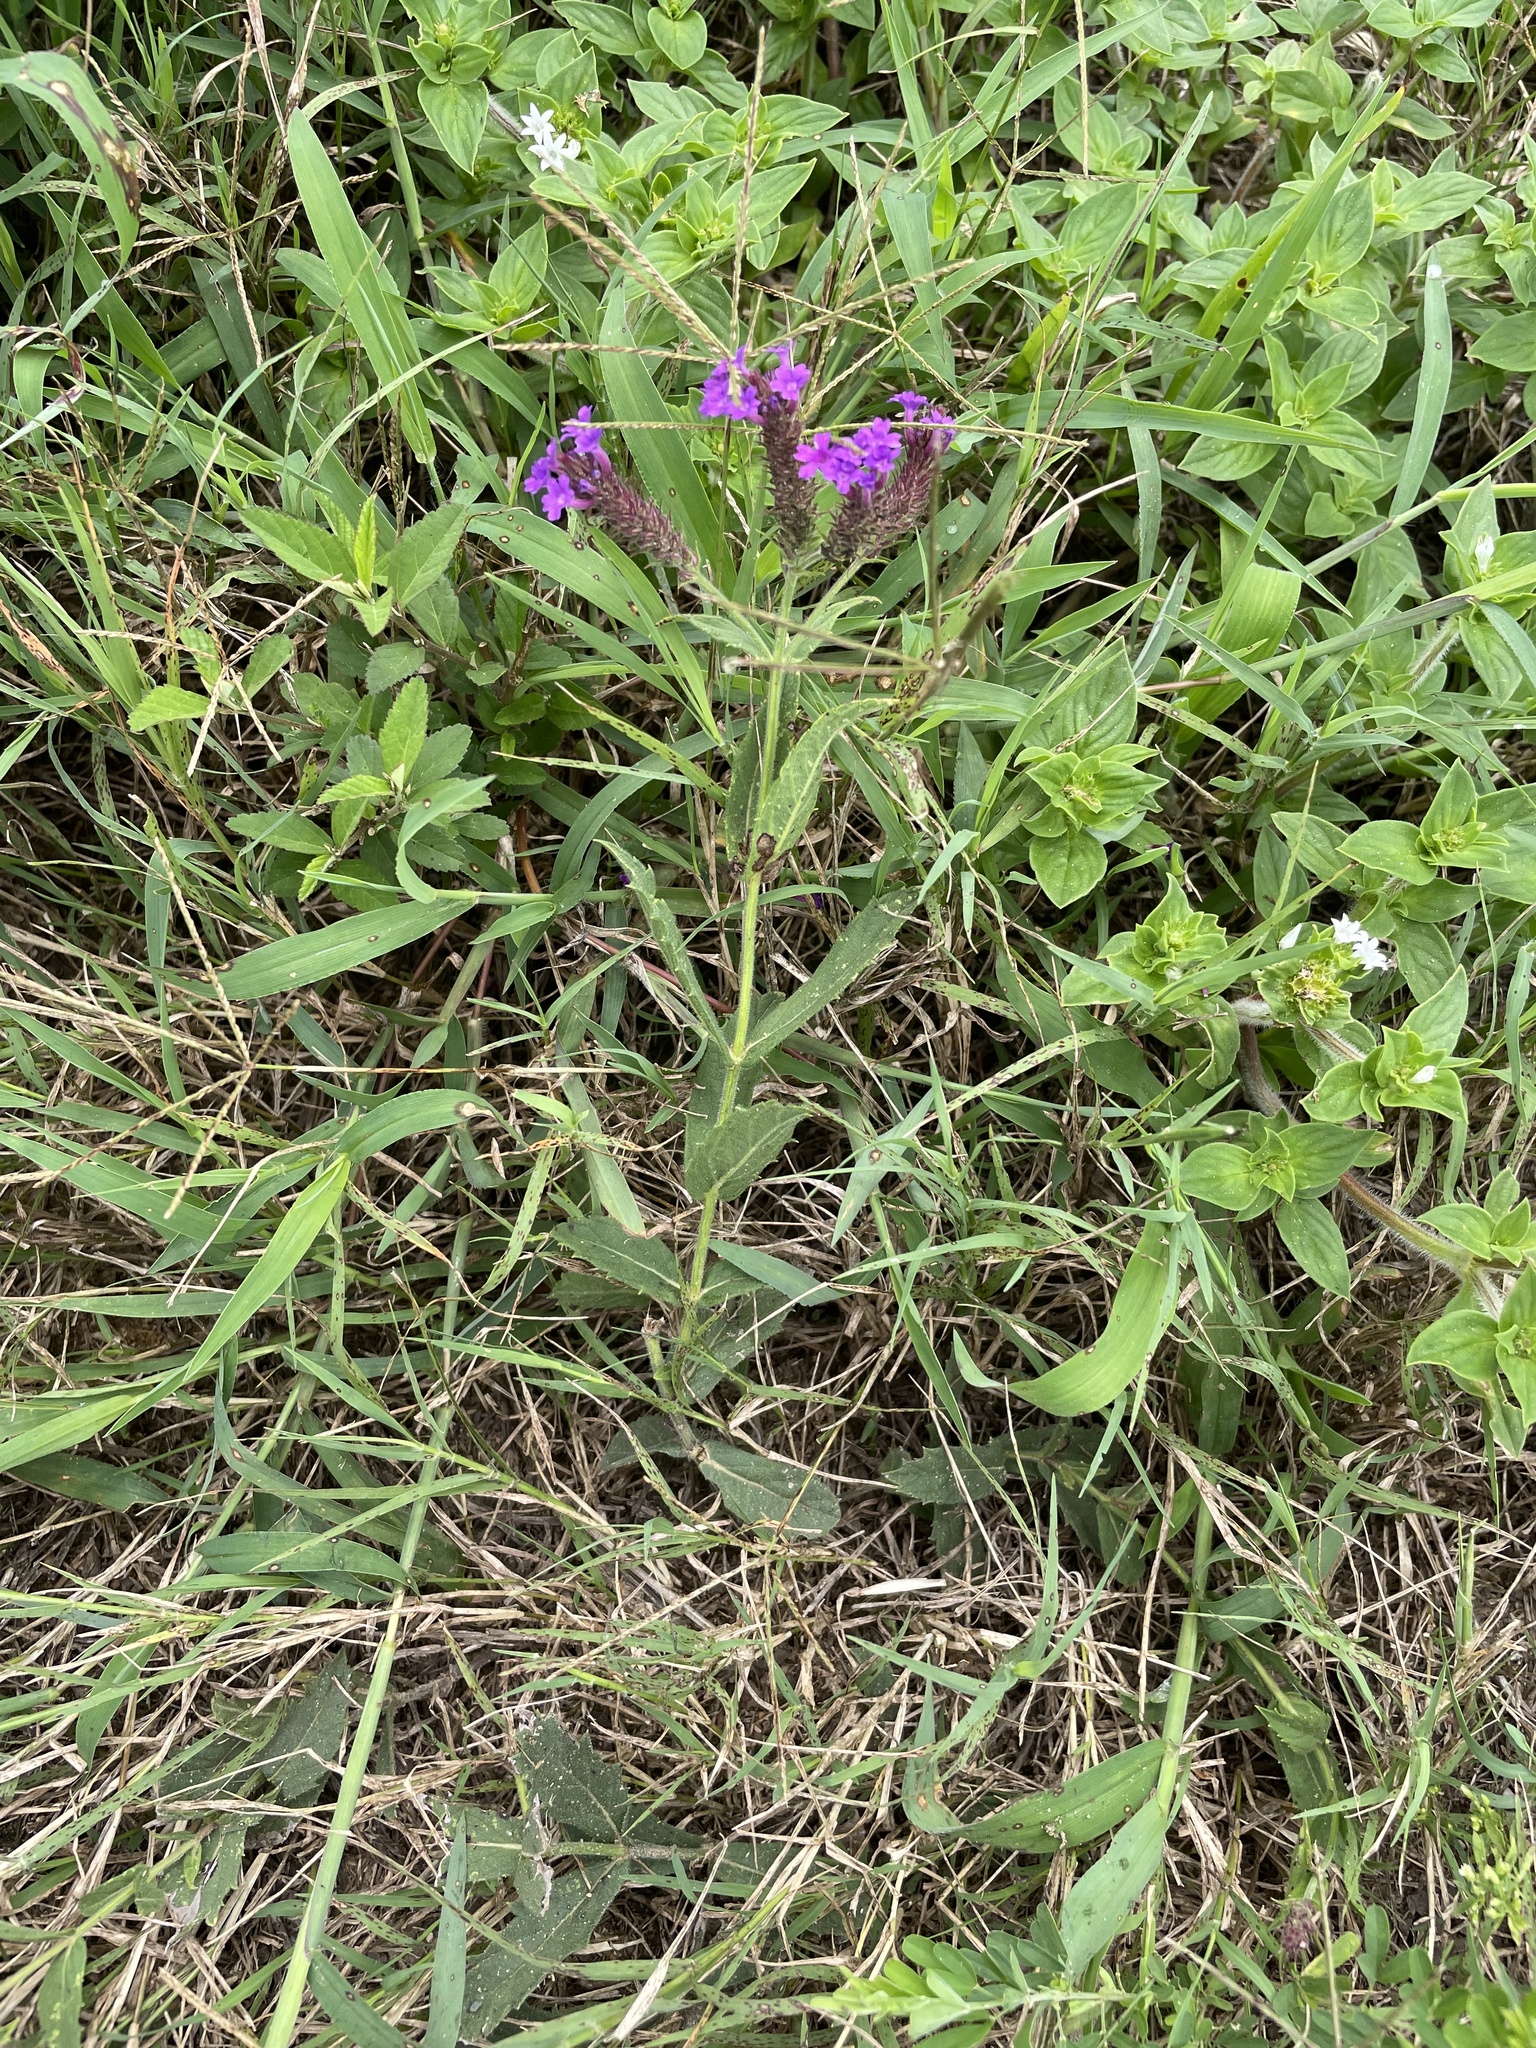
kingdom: Plantae
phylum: Tracheophyta
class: Magnoliopsida
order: Lamiales
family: Verbenaceae
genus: Verbena
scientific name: Verbena rigida
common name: Slender vervain
